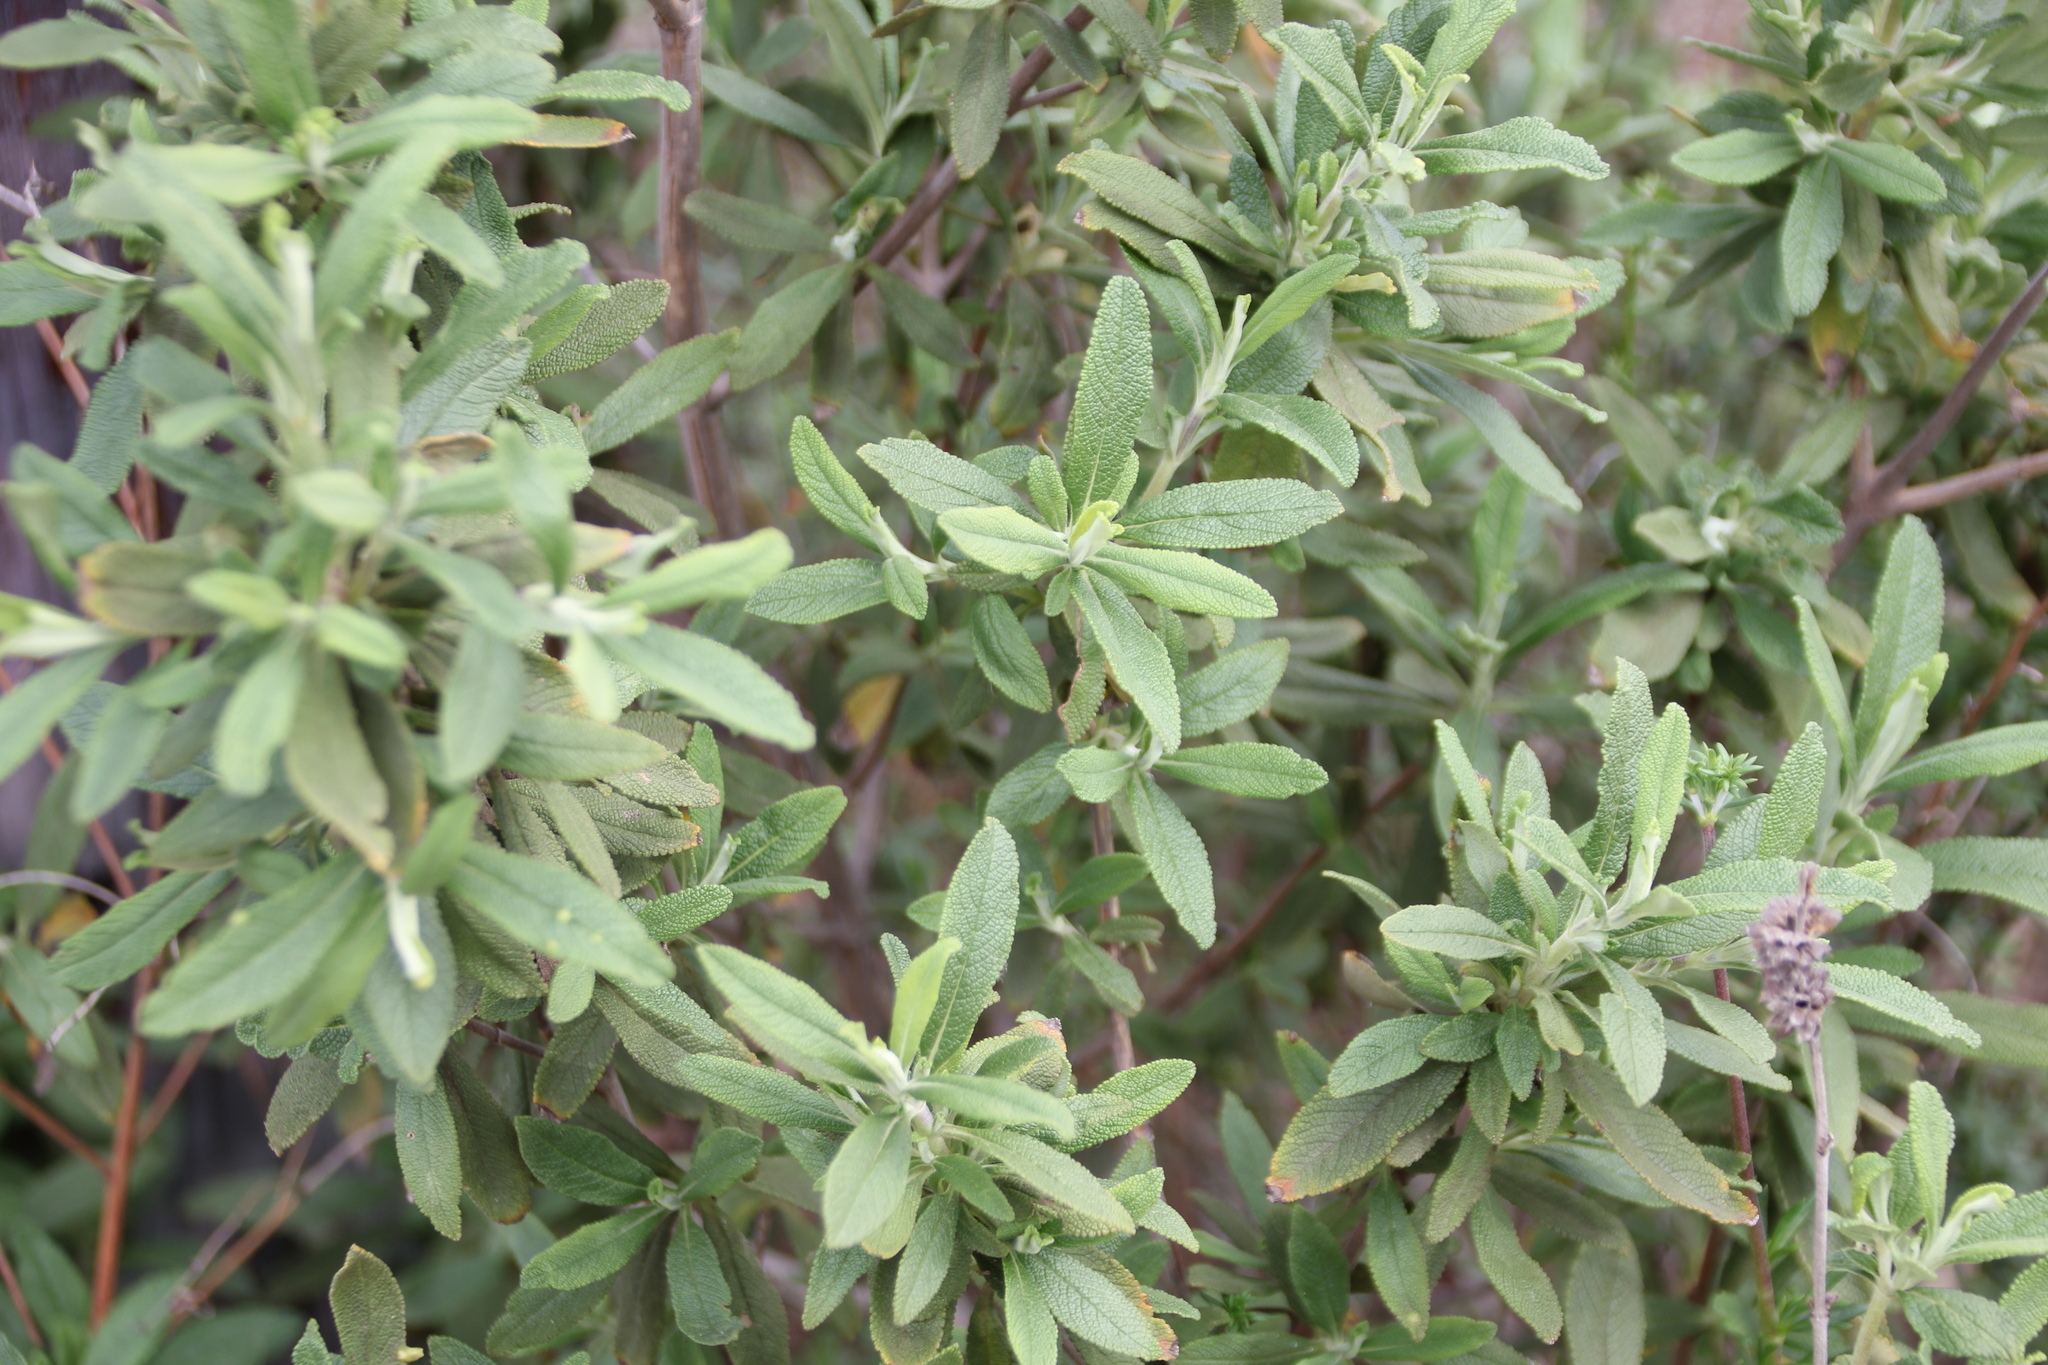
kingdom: Plantae
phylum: Tracheophyta
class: Magnoliopsida
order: Lamiales
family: Lamiaceae
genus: Salvia
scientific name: Salvia mellifera
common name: Black sage
